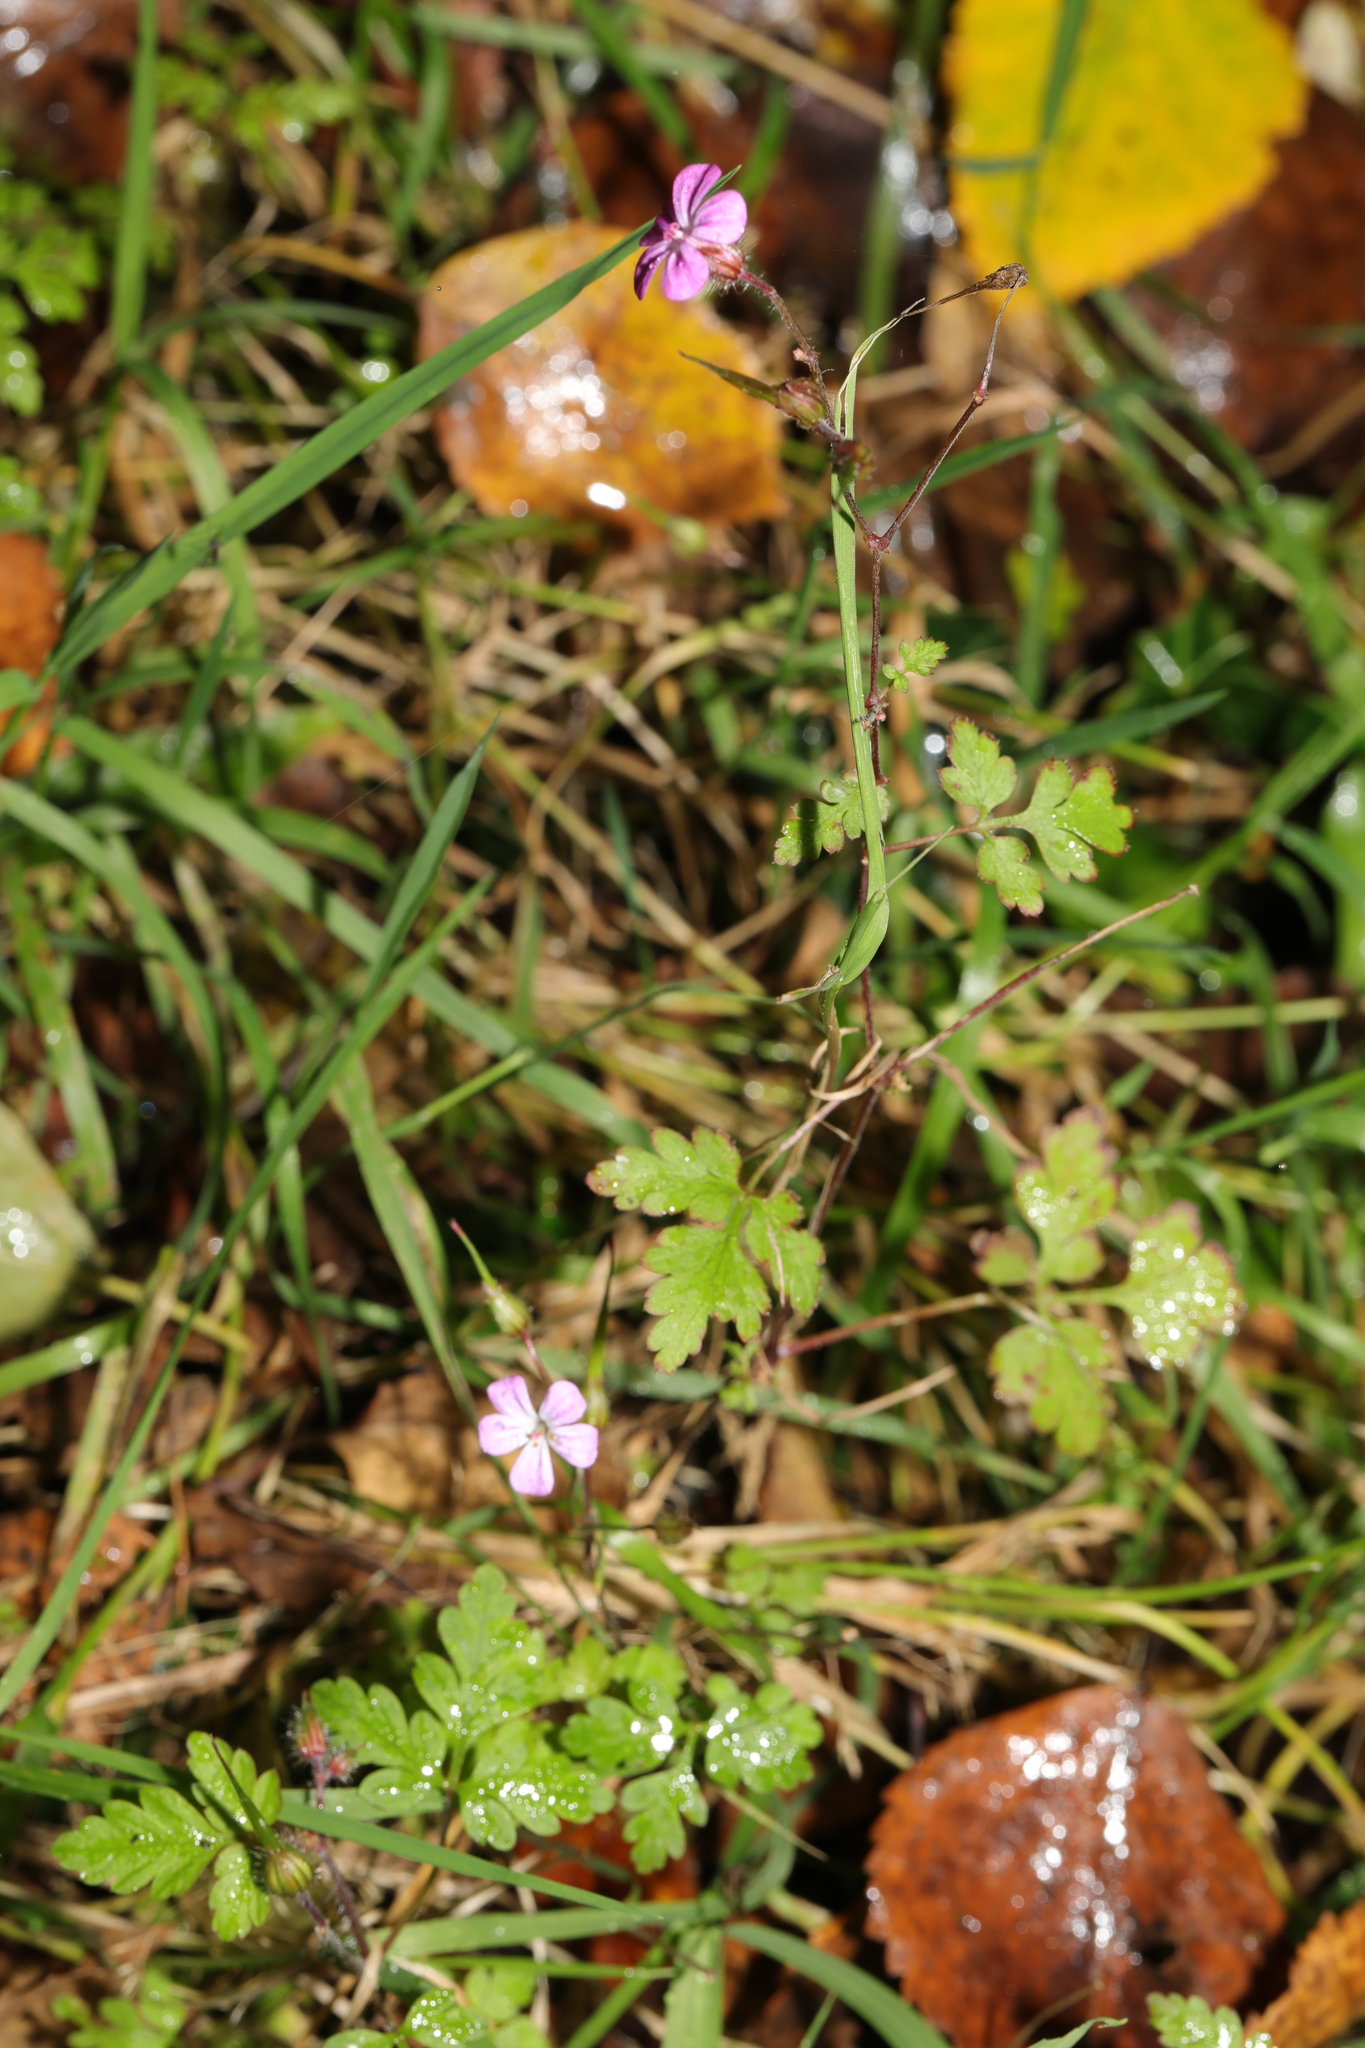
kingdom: Plantae
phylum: Tracheophyta
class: Magnoliopsida
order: Geraniales
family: Geraniaceae
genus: Geranium
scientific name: Geranium robertianum
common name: Herb-robert
